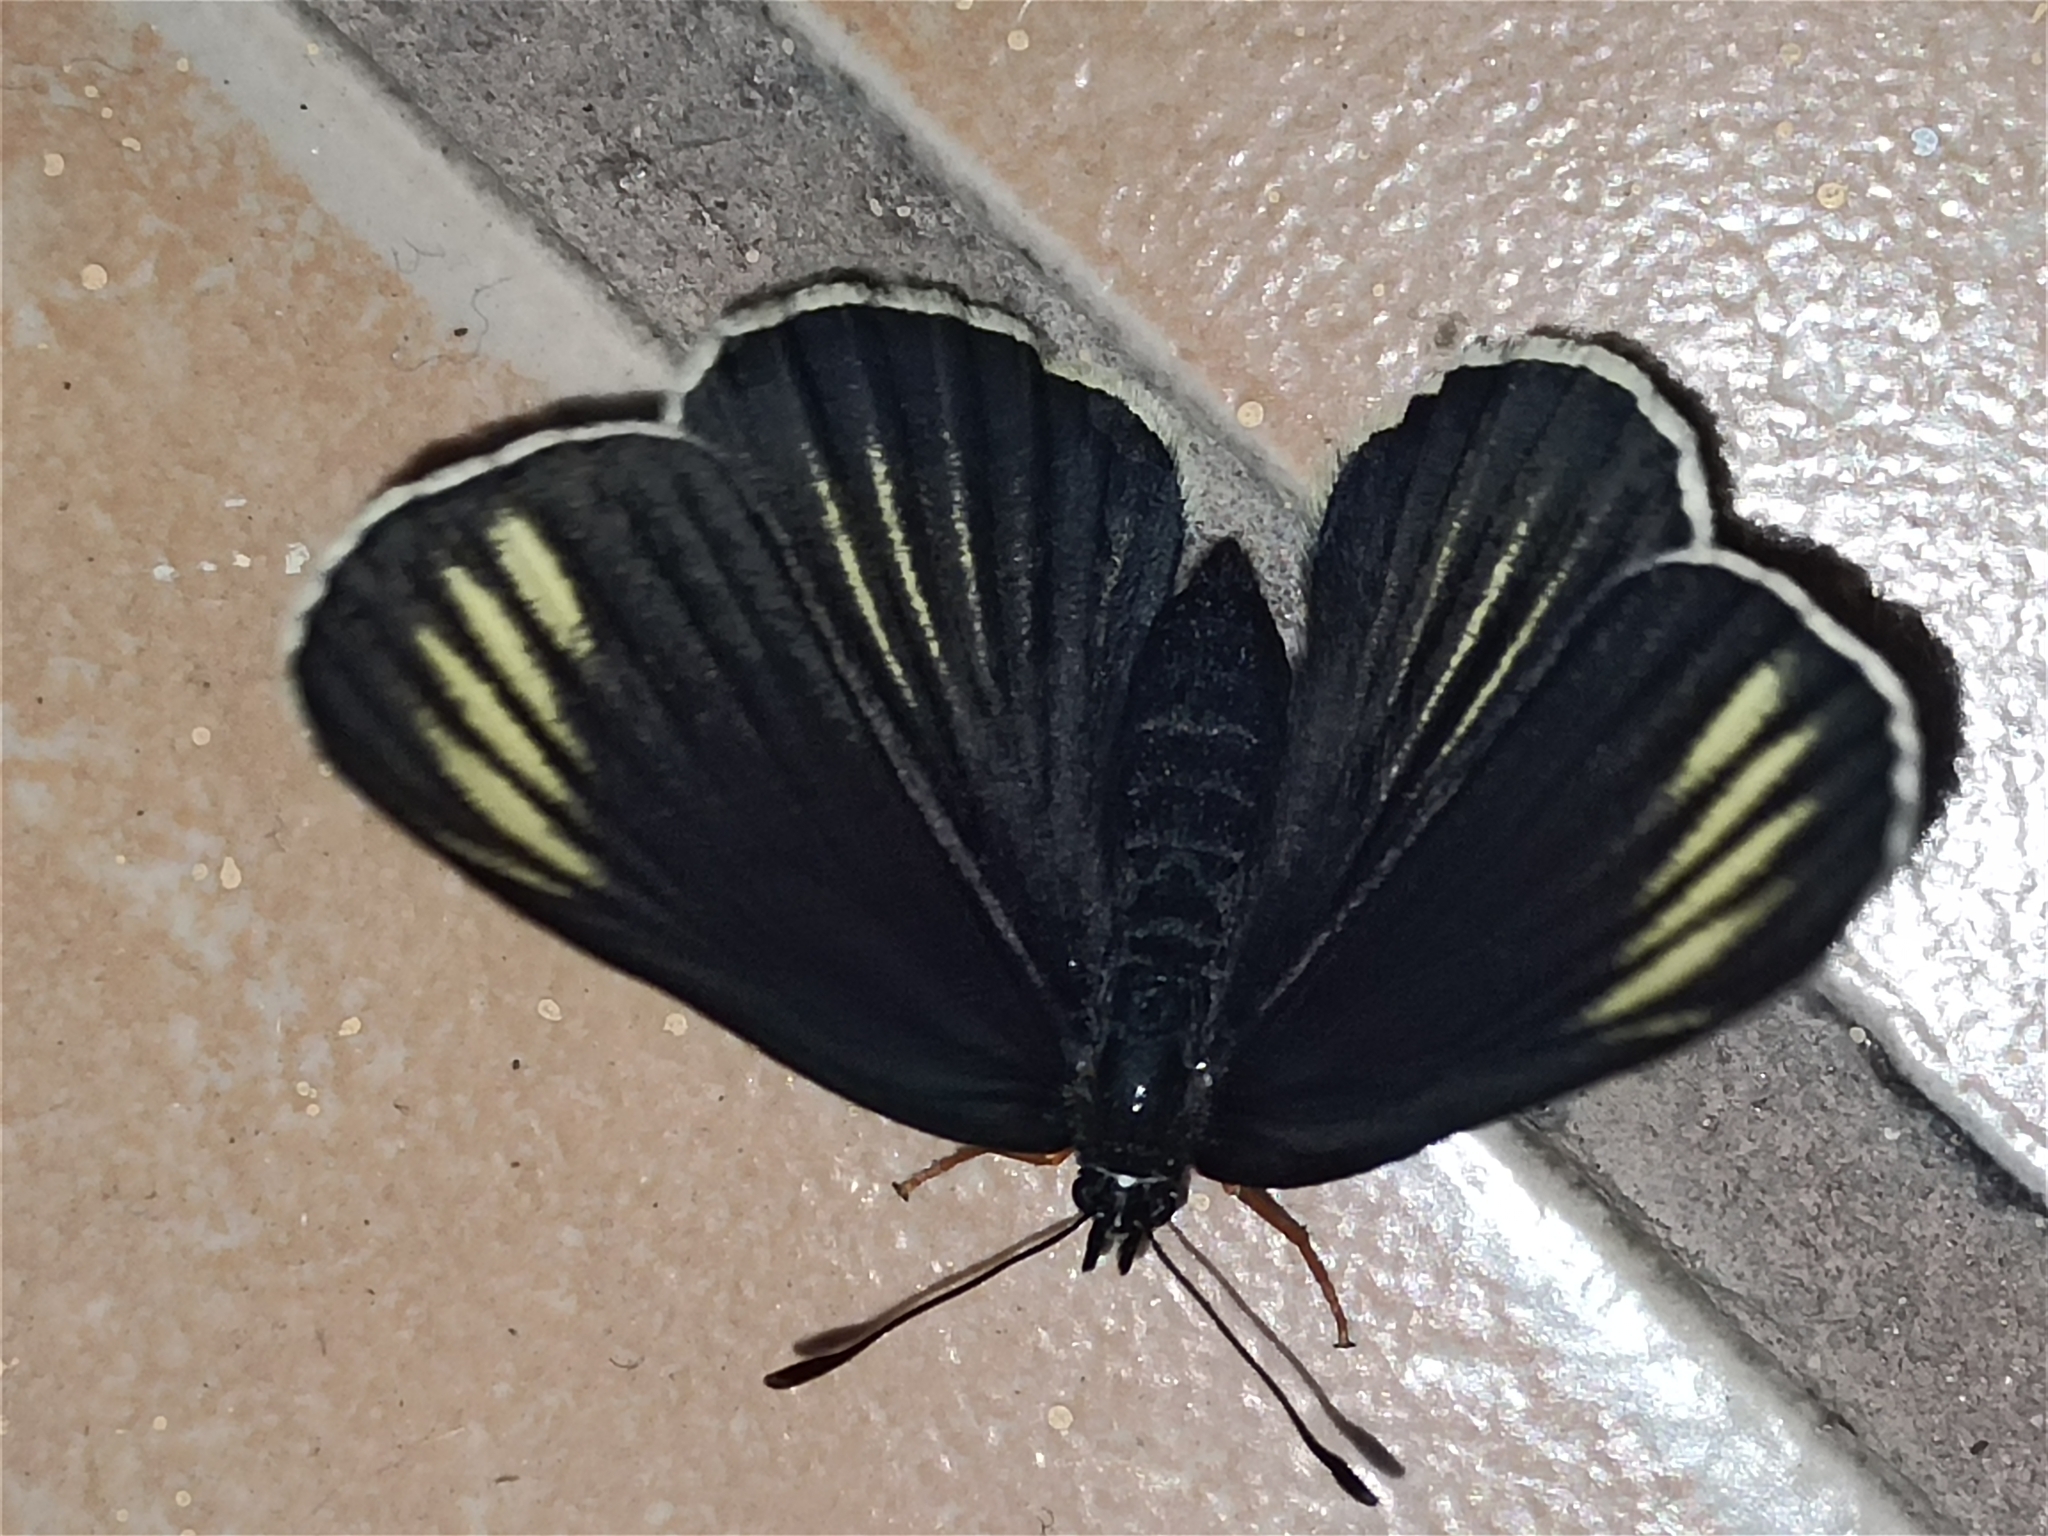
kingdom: Animalia
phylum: Arthropoda
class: Insecta
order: Lepidoptera
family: Nymphalidae
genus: Chlosyne
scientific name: Chlosyne ehrenbergii
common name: White-rayed patch
